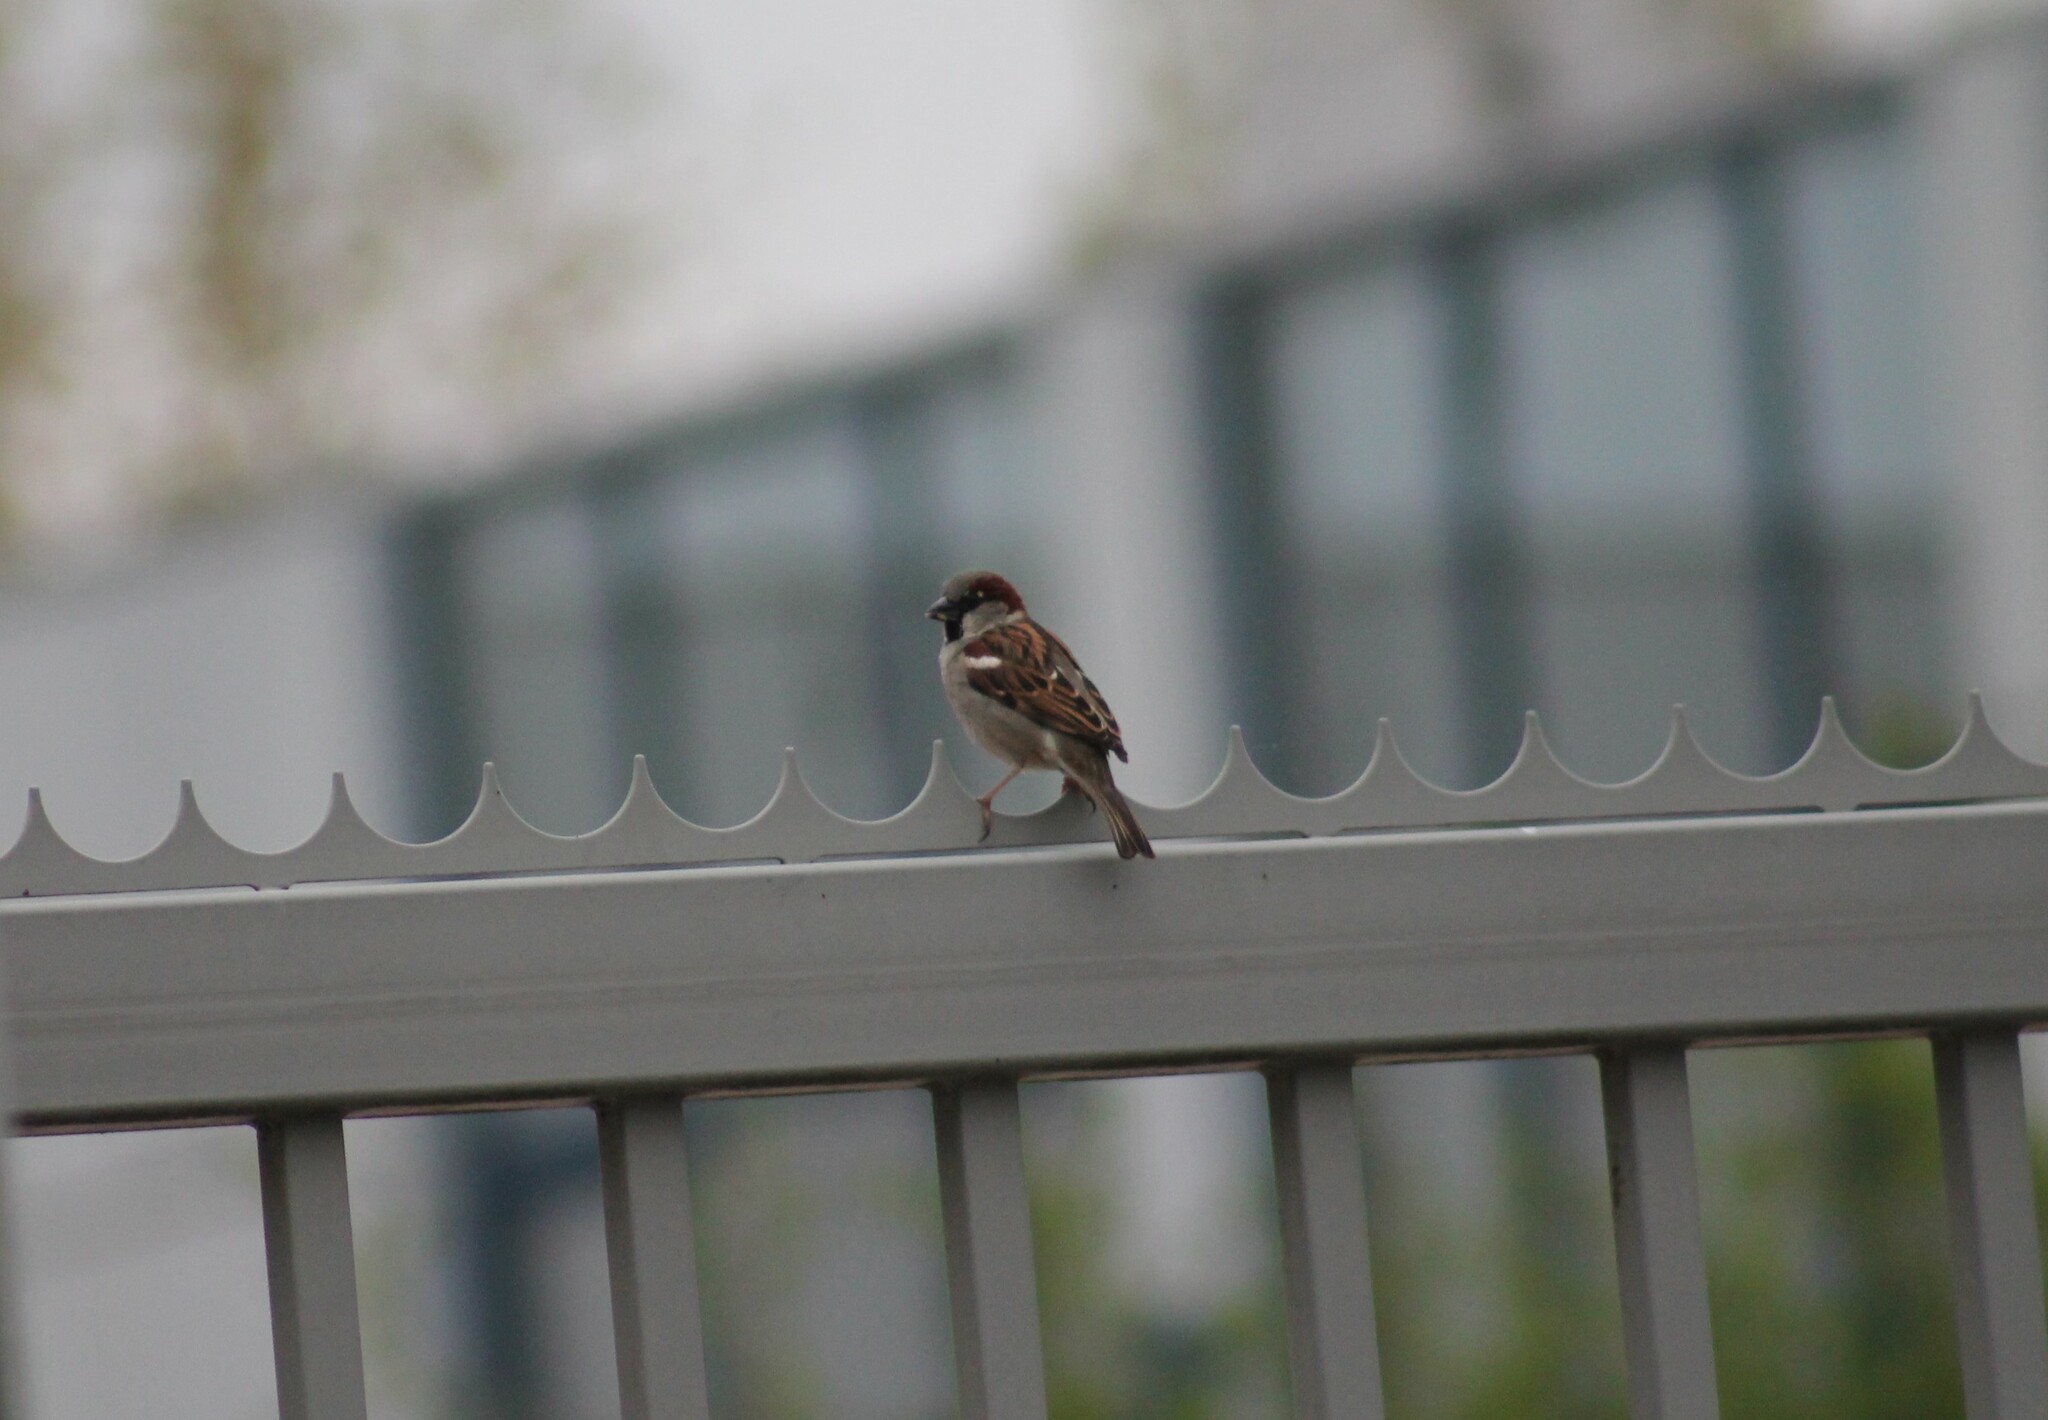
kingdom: Animalia
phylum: Chordata
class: Aves
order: Passeriformes
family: Passeridae
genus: Passer
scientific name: Passer domesticus
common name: House sparrow
